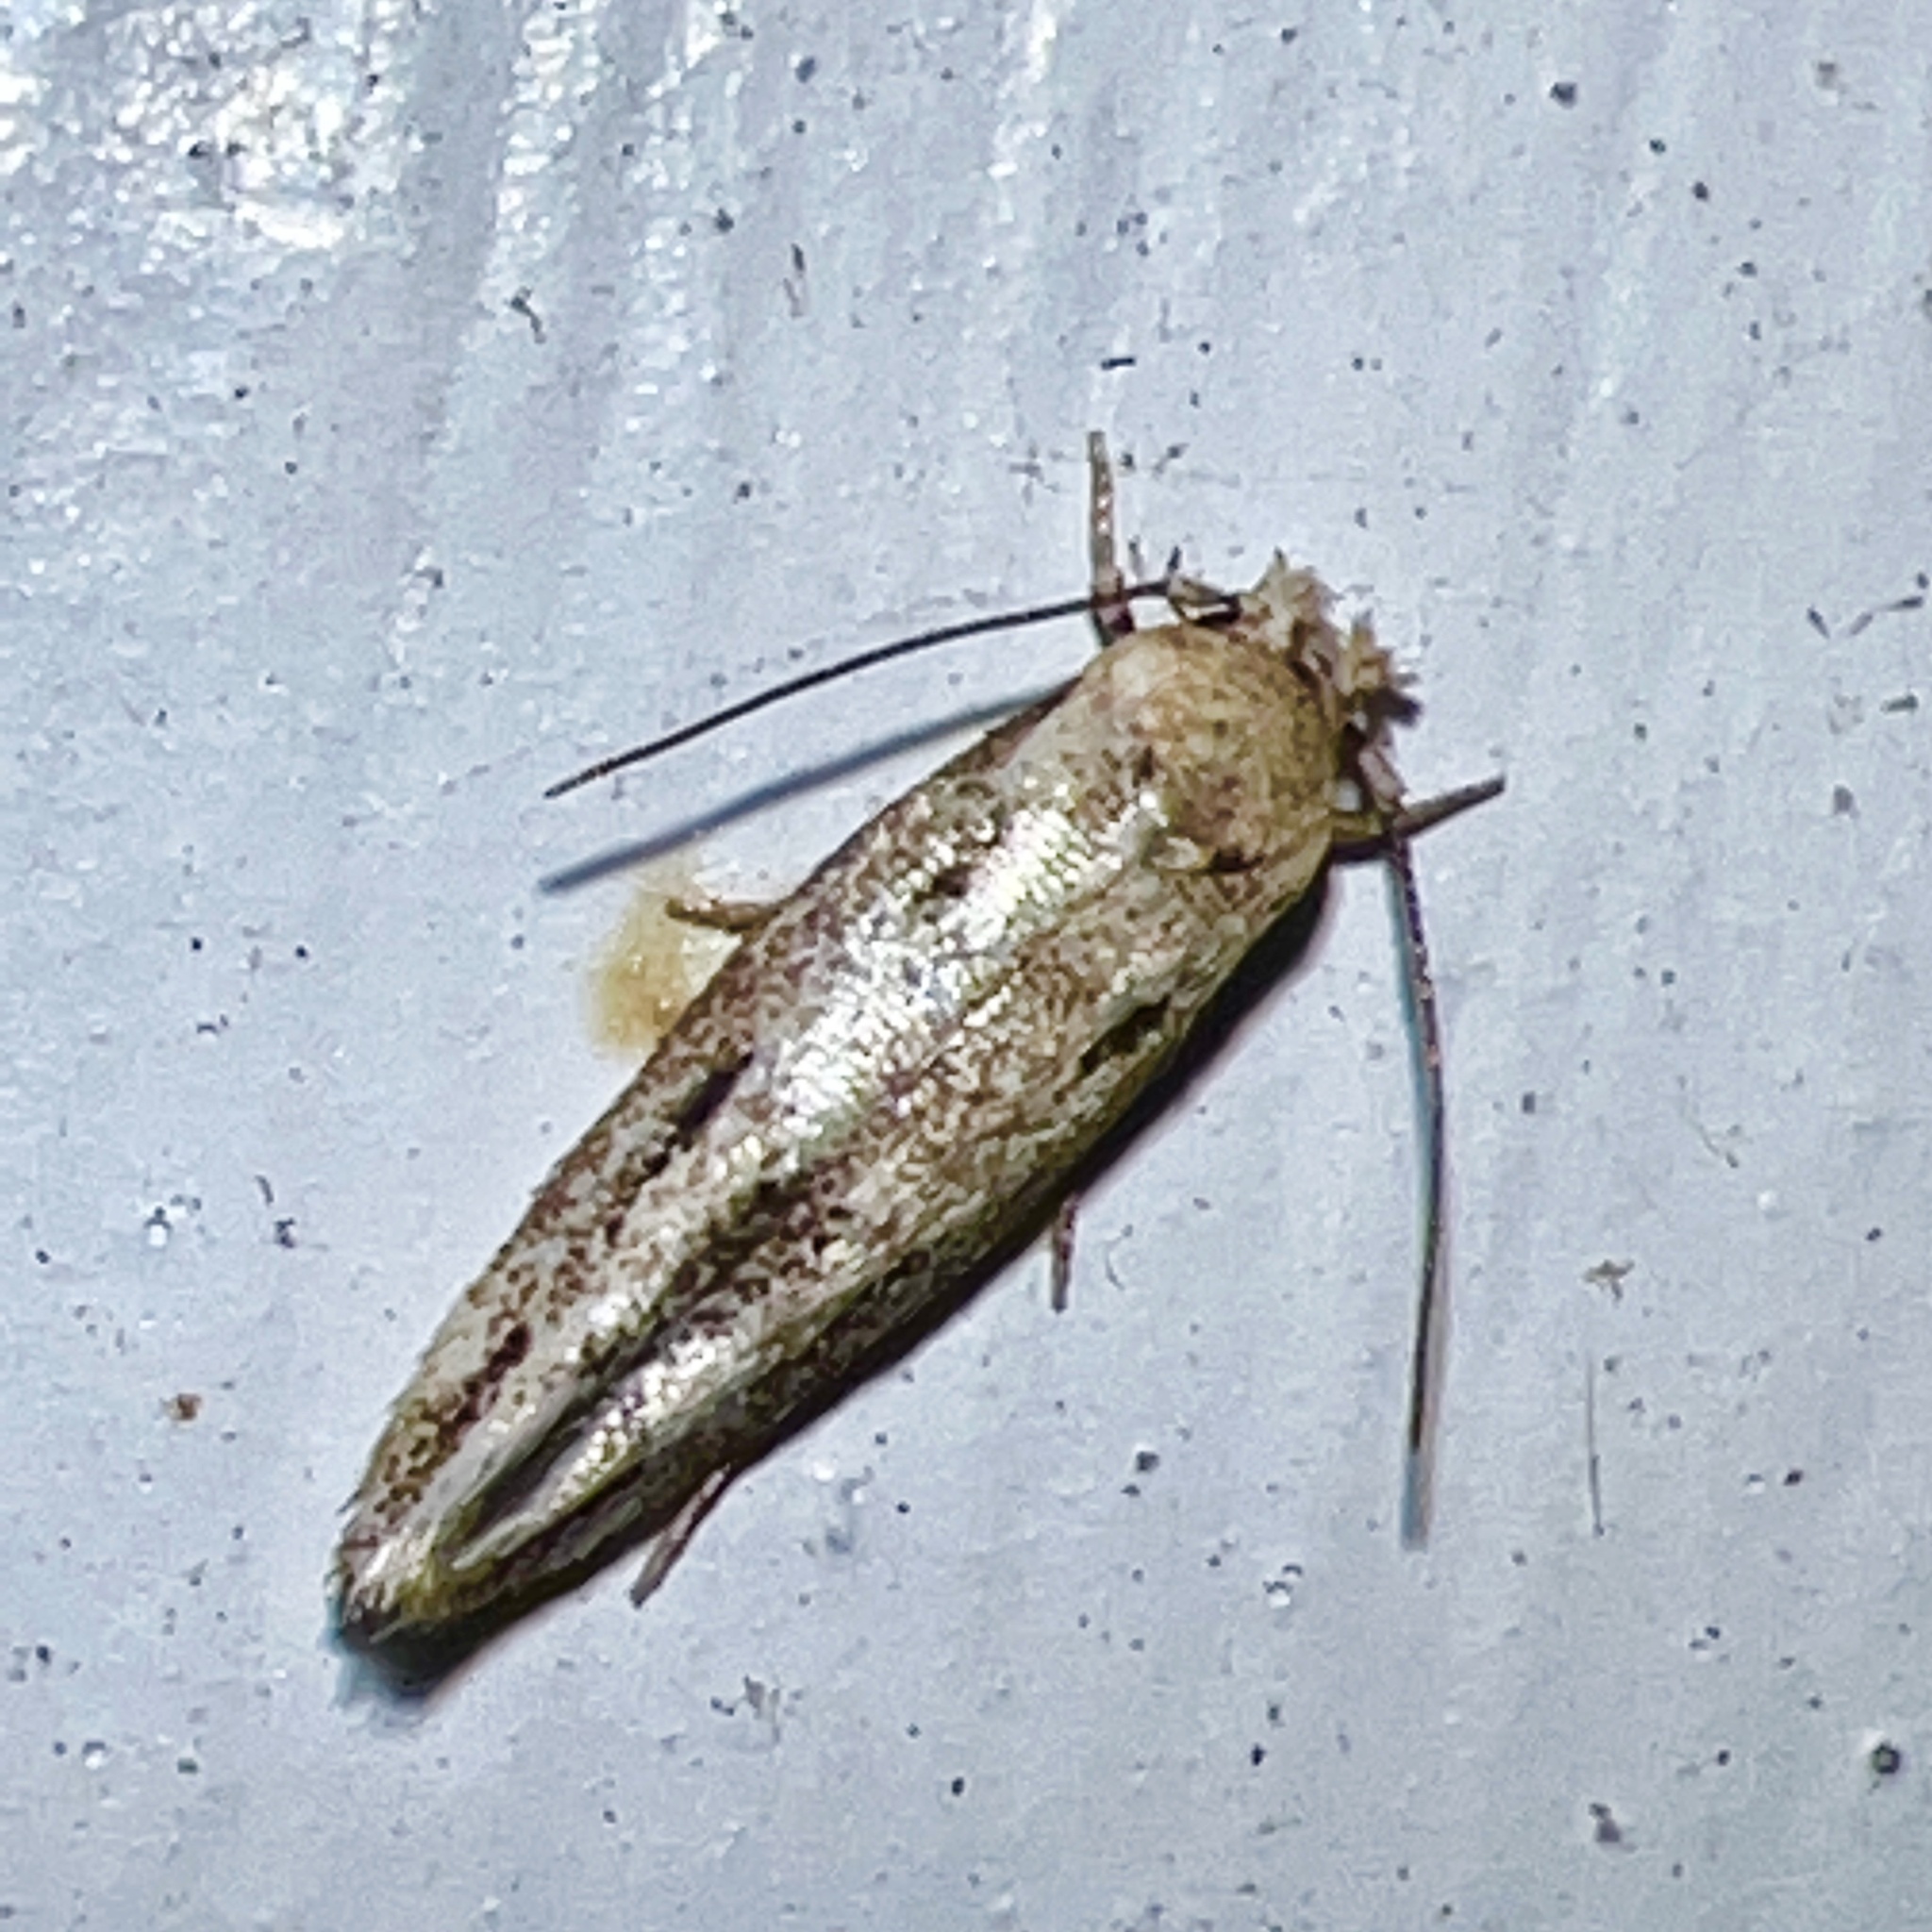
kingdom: Animalia
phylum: Arthropoda
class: Insecta
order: Lepidoptera
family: Momphidae
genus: Mompha
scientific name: Mompha brevivittella
